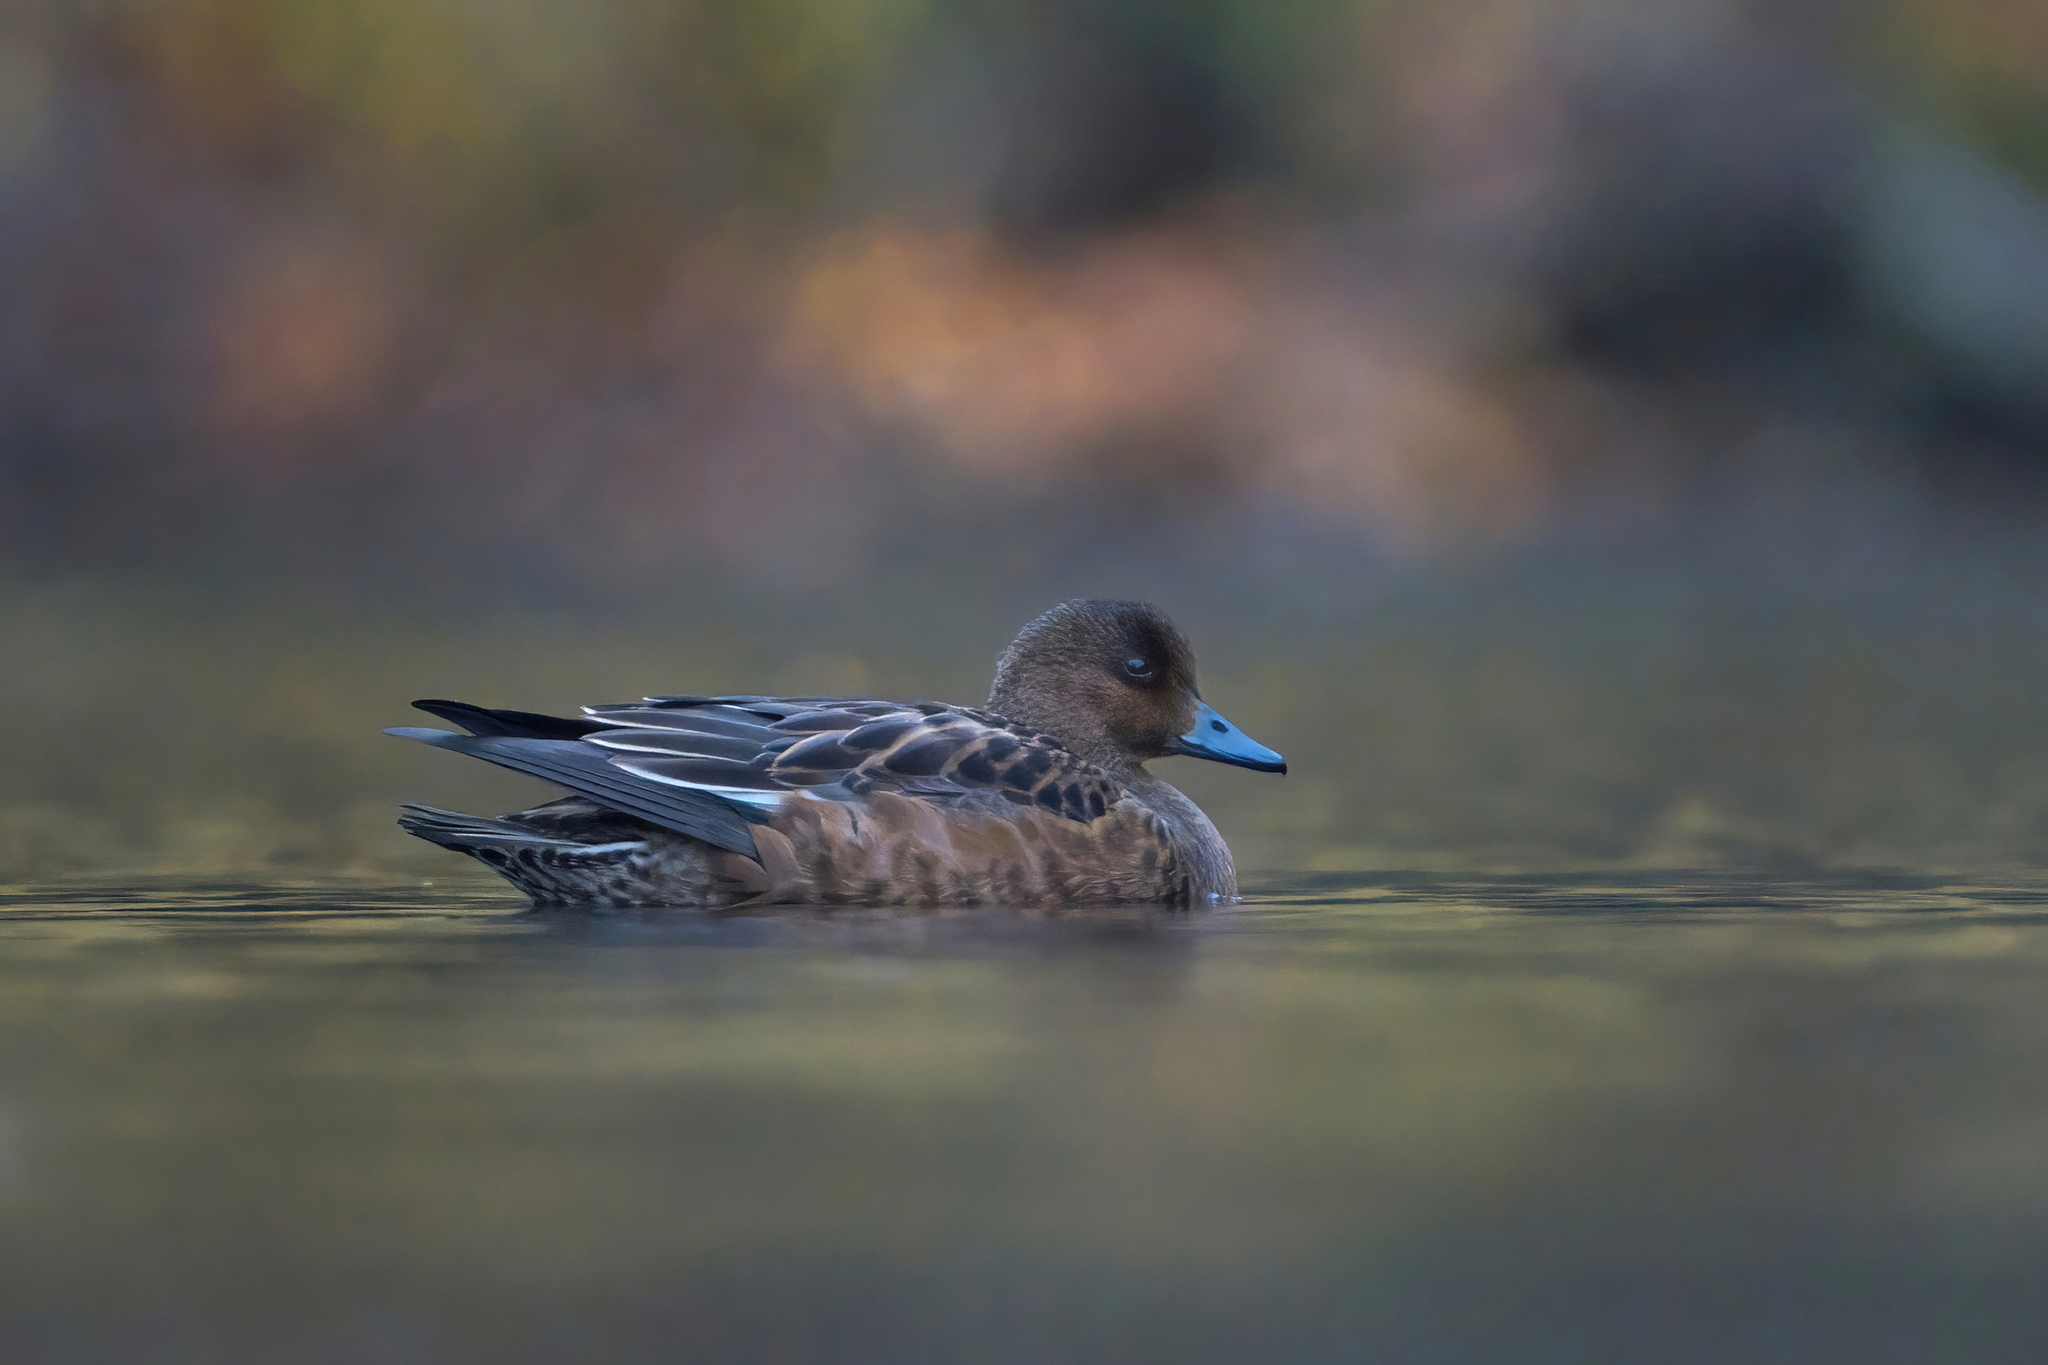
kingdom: Animalia
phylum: Chordata
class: Aves
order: Anseriformes
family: Anatidae
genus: Mareca
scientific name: Mareca penelope
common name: Eurasian wigeon
